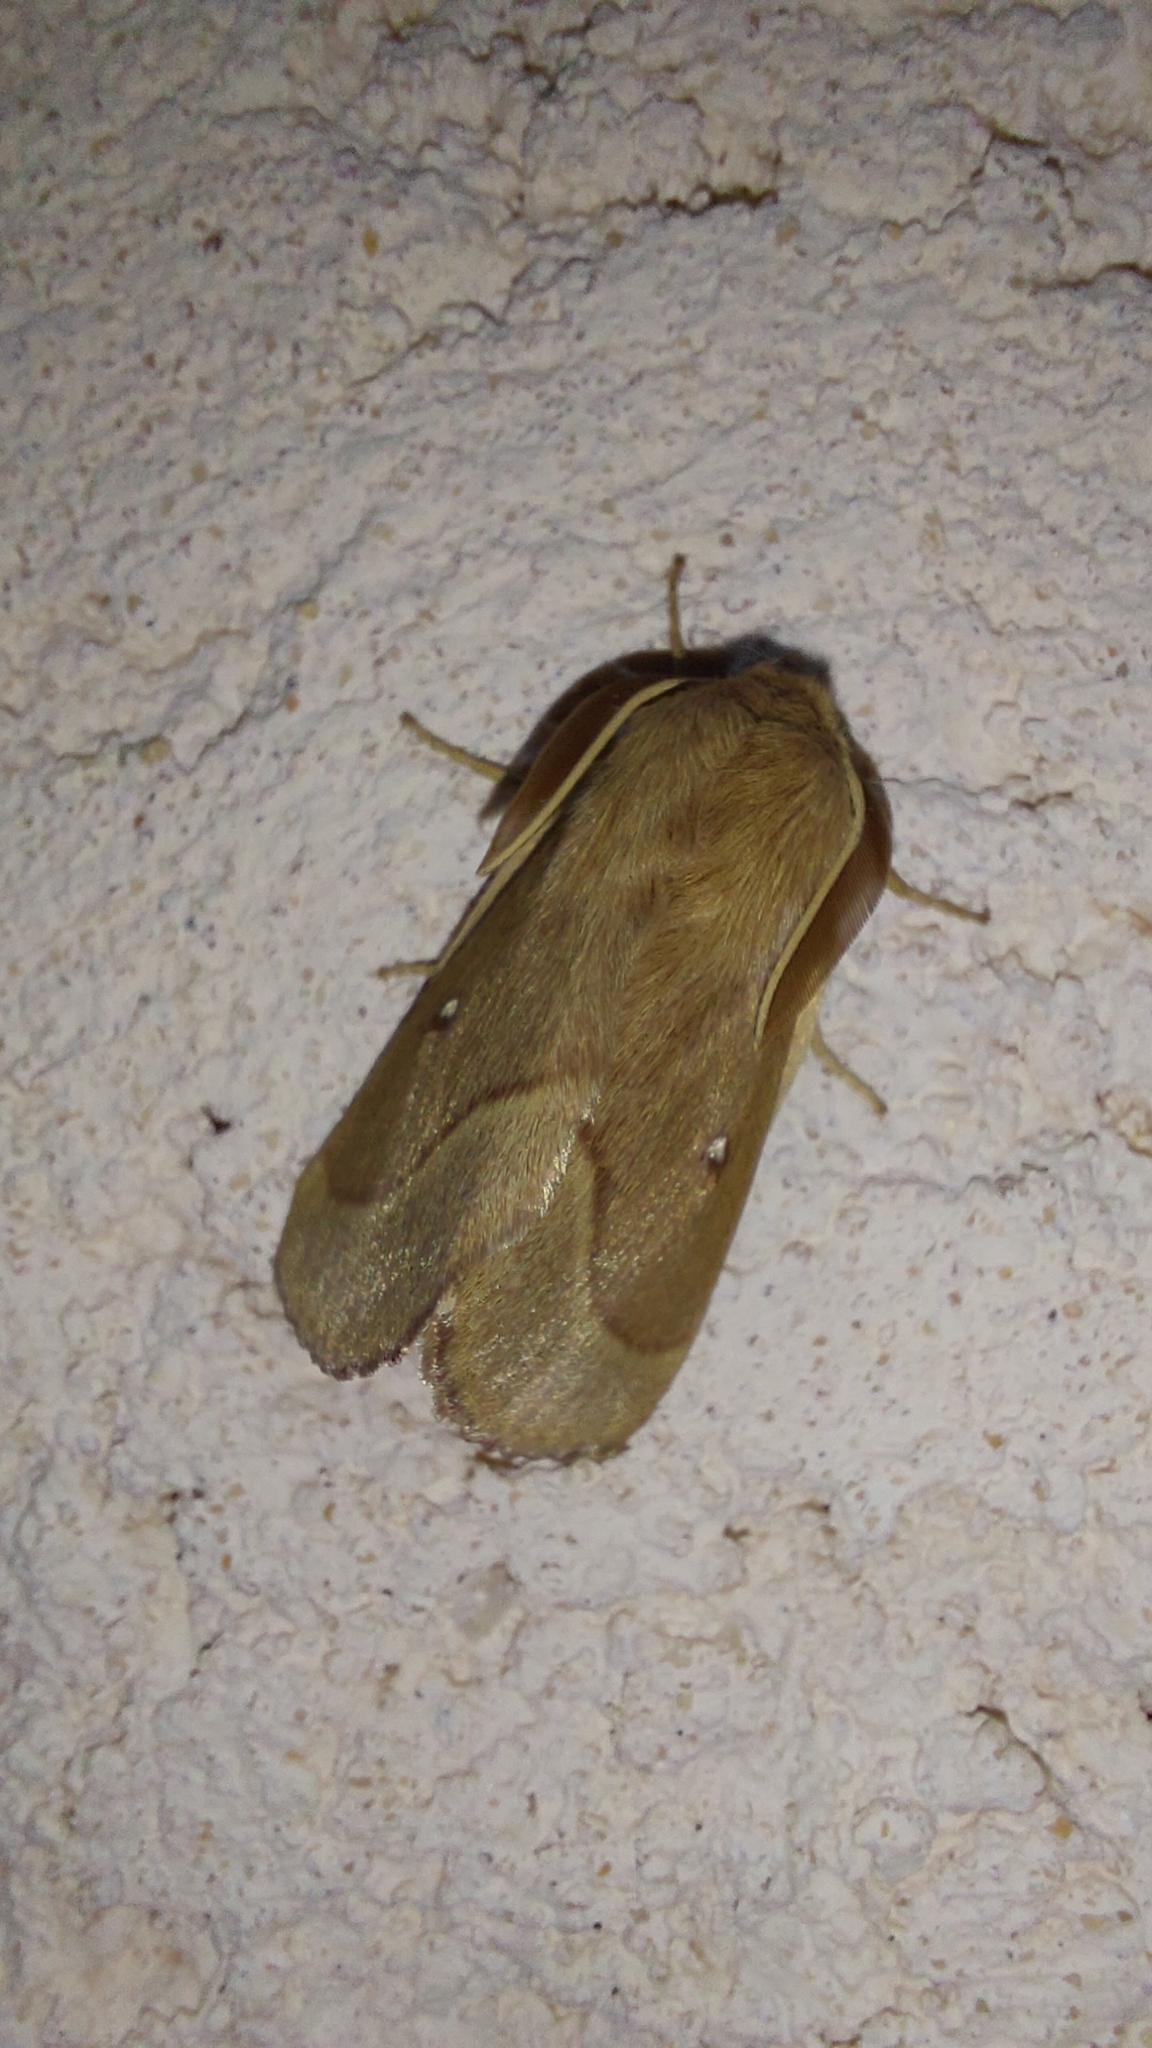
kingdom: Animalia
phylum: Arthropoda
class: Insecta
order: Lepidoptera
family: Lasiocampidae
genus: Lasiocampa
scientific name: Lasiocampa trifolii
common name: Grass eggar
